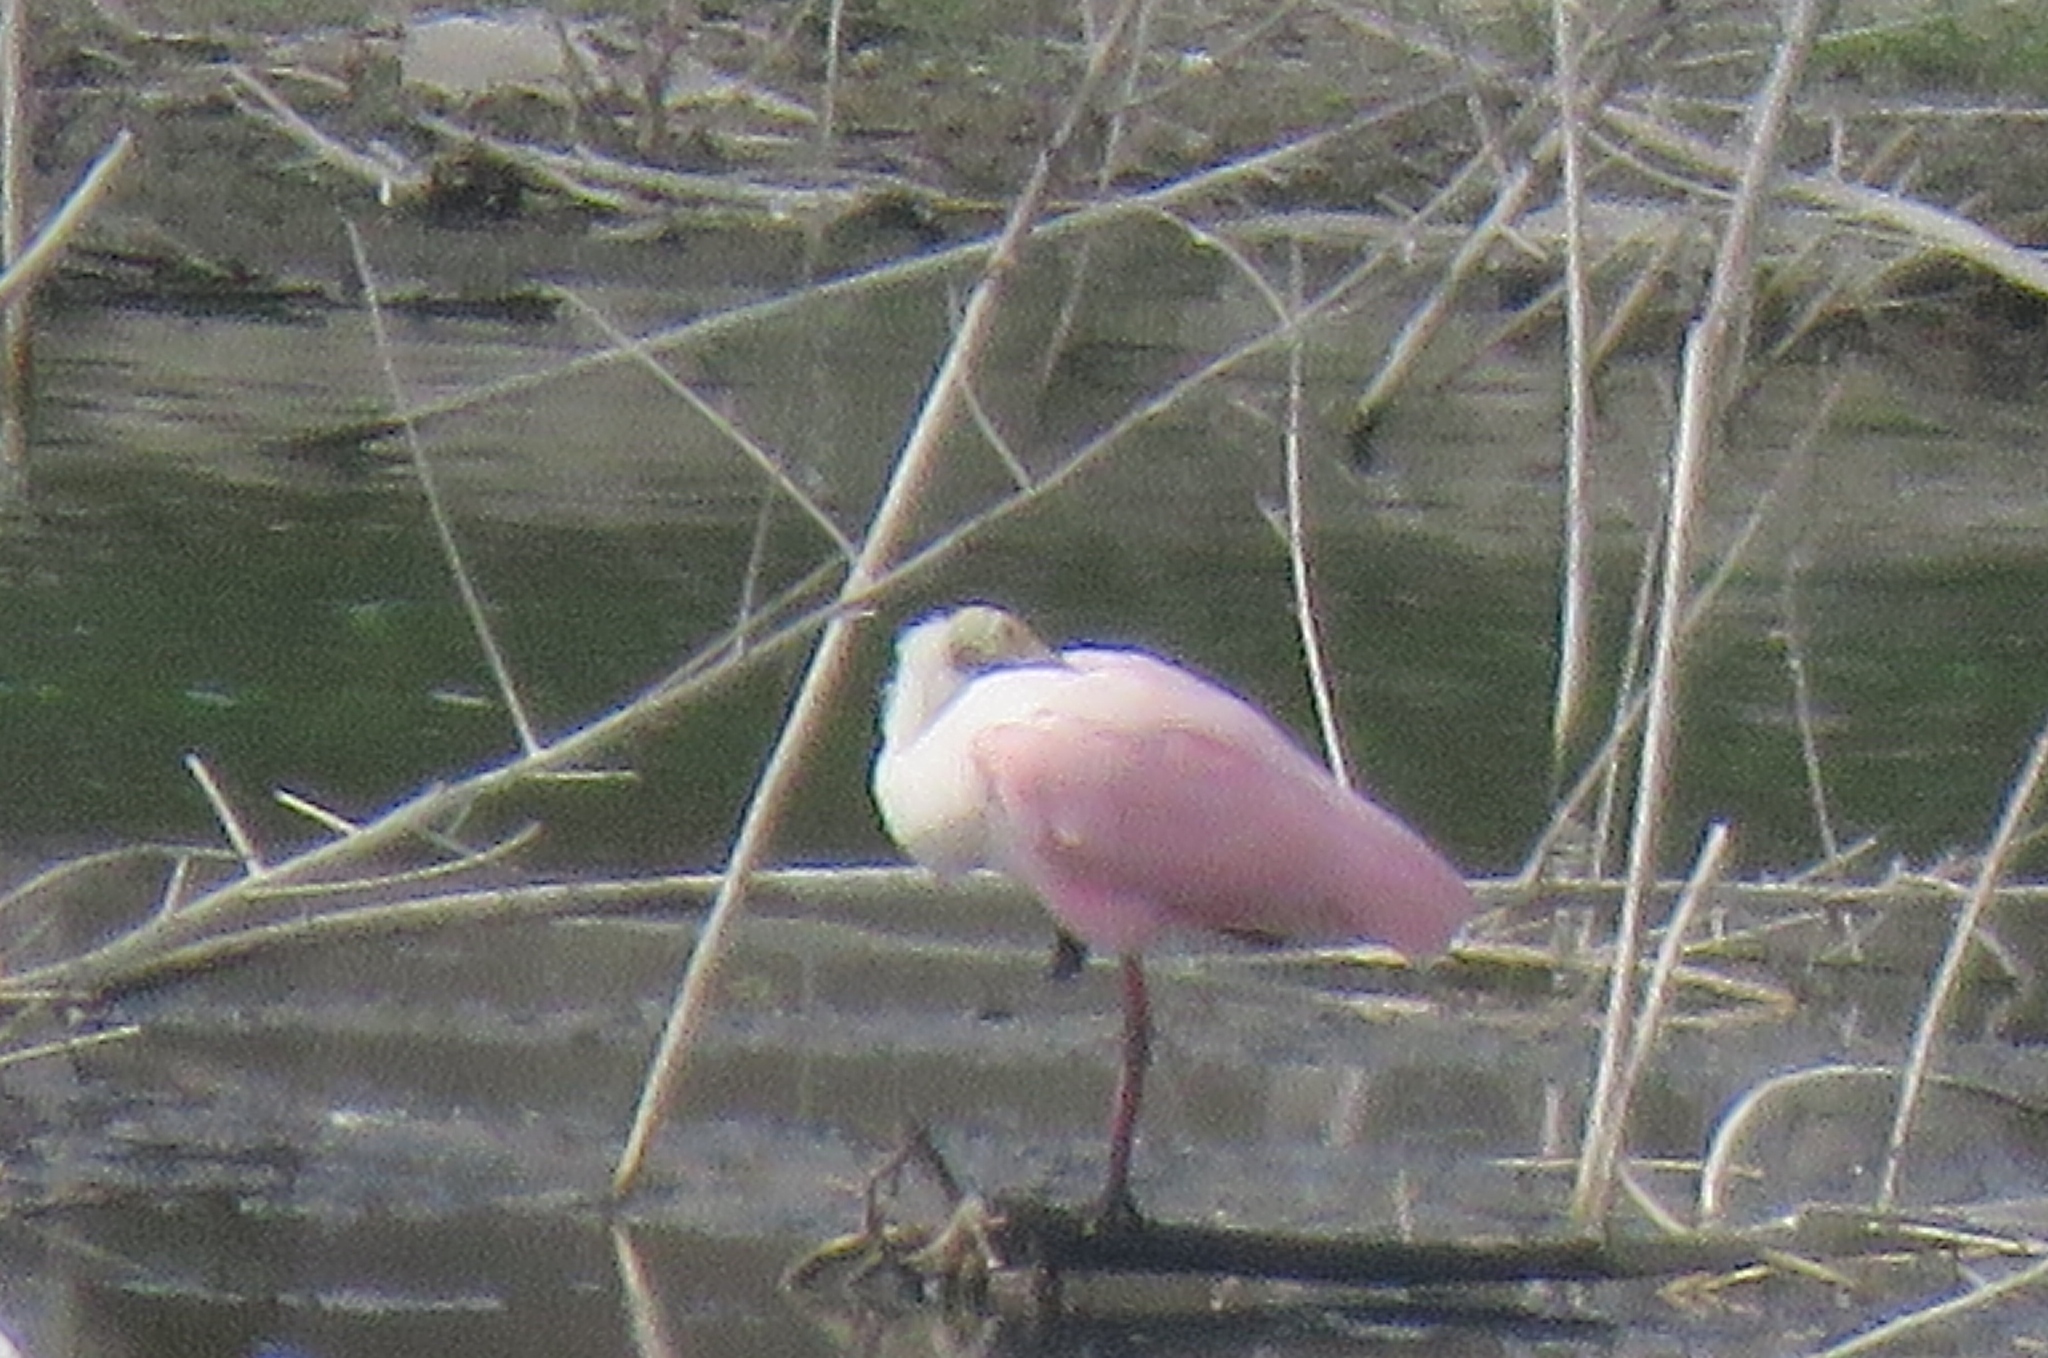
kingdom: Animalia
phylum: Chordata
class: Aves
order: Pelecaniformes
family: Threskiornithidae
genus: Platalea
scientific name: Platalea ajaja
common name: Roseate spoonbill
